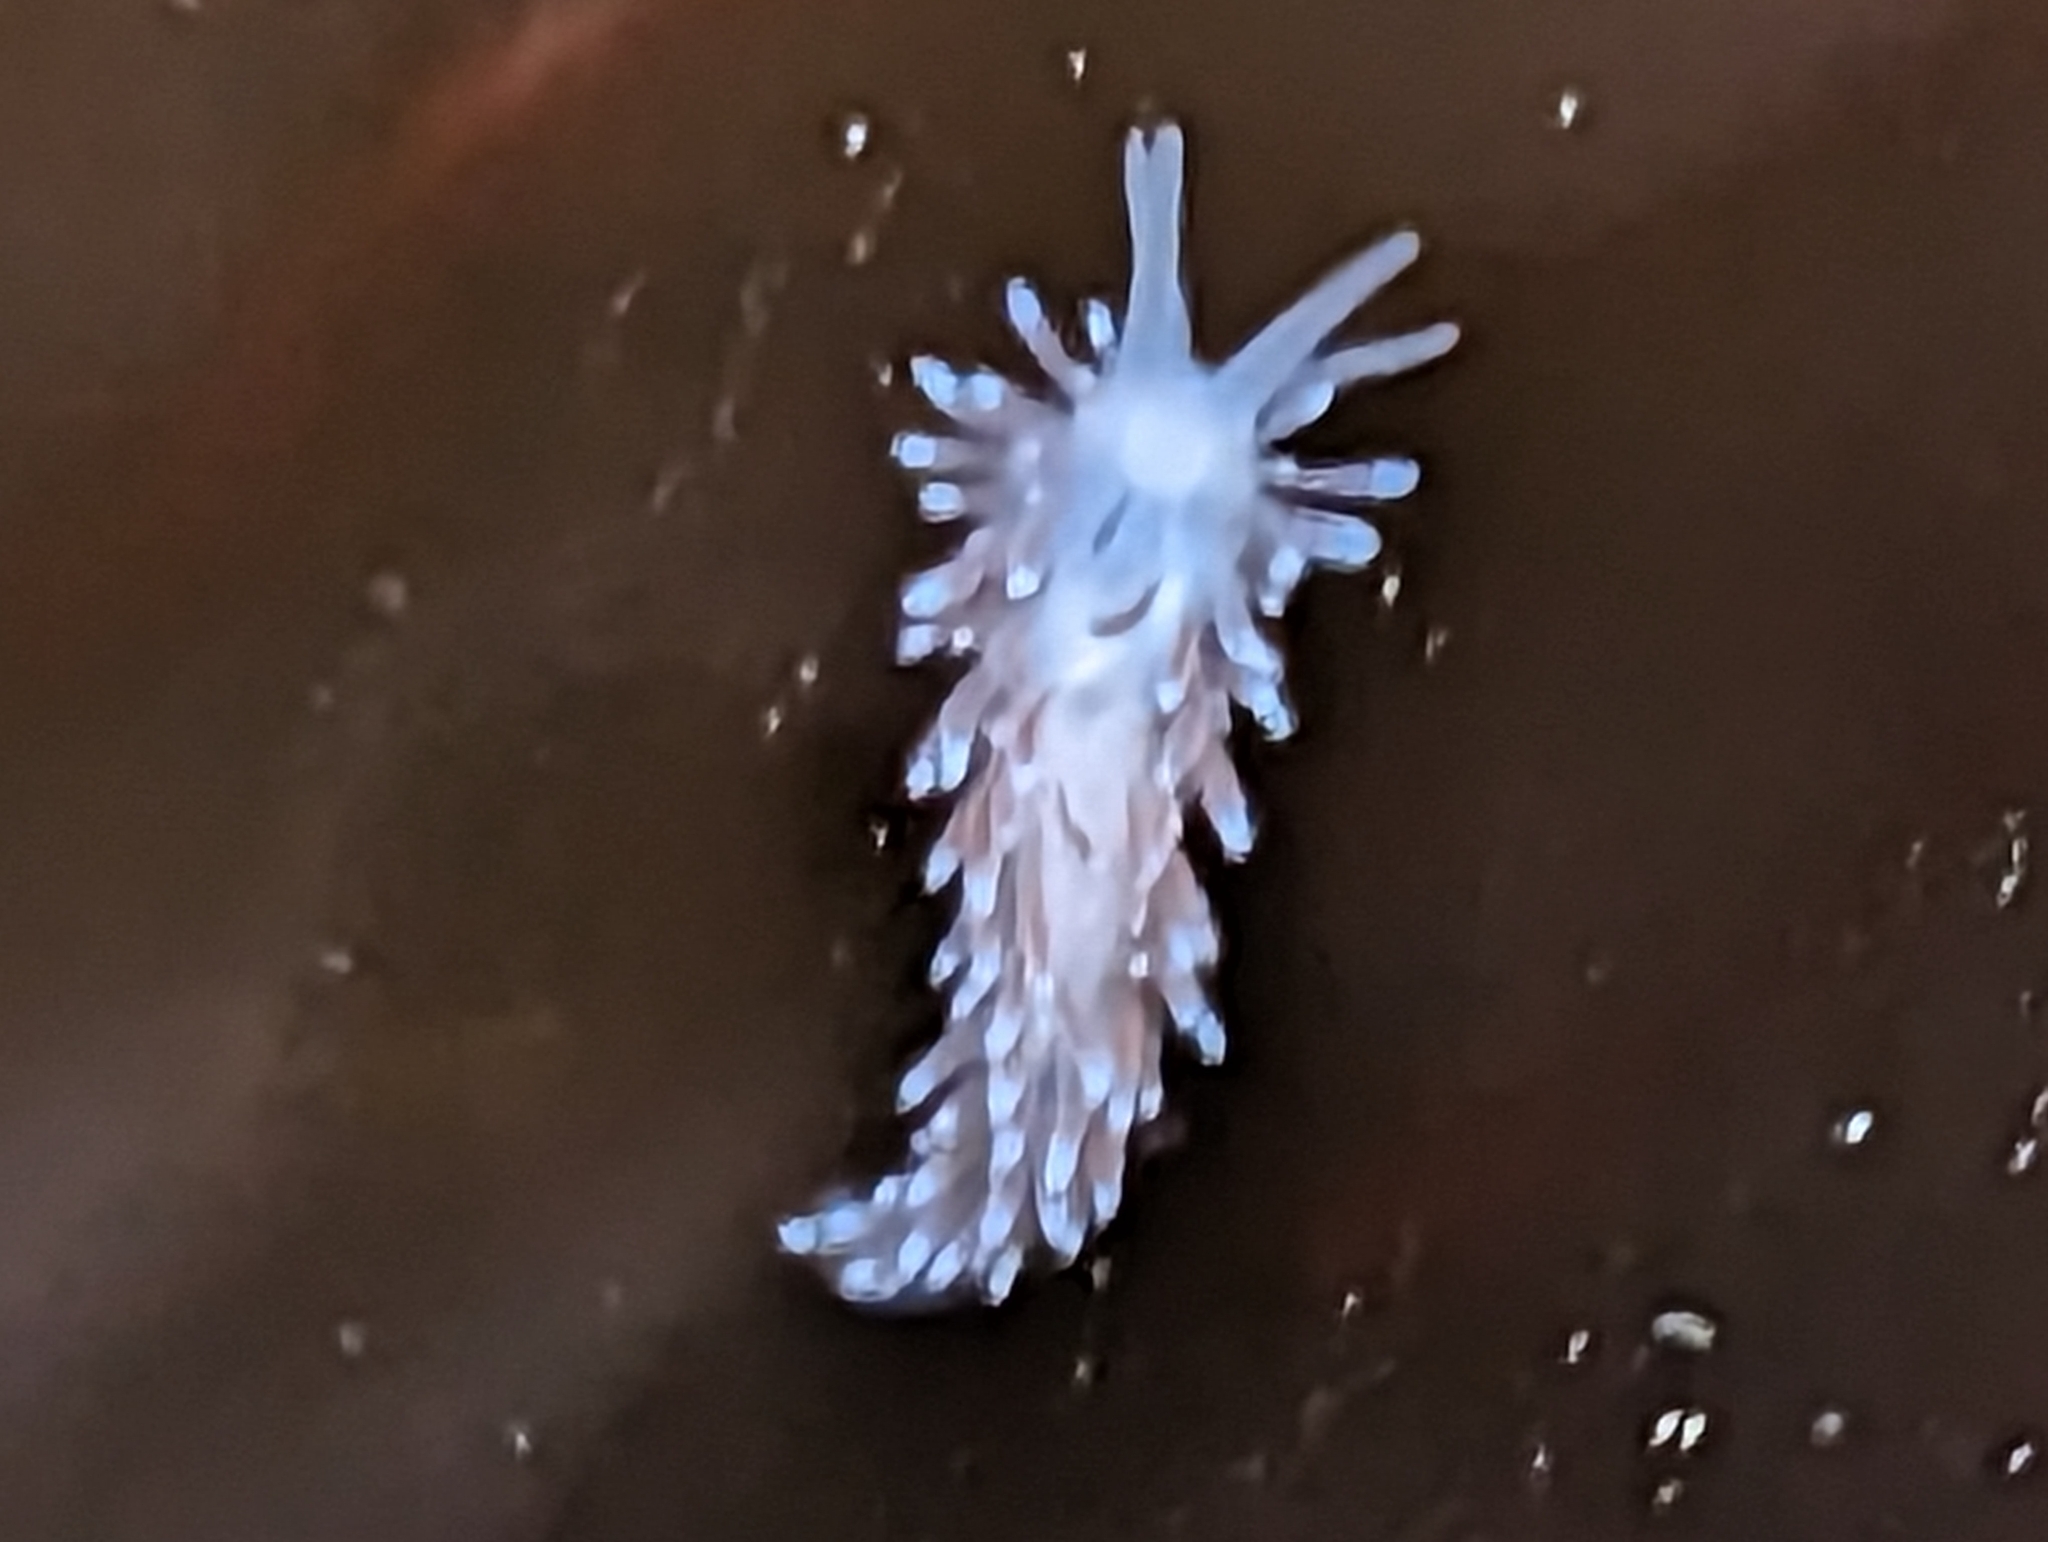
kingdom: Animalia
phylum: Mollusca
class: Gastropoda
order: Nudibranchia
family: Cuthonidae
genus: Cuthona
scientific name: Cuthona divae
